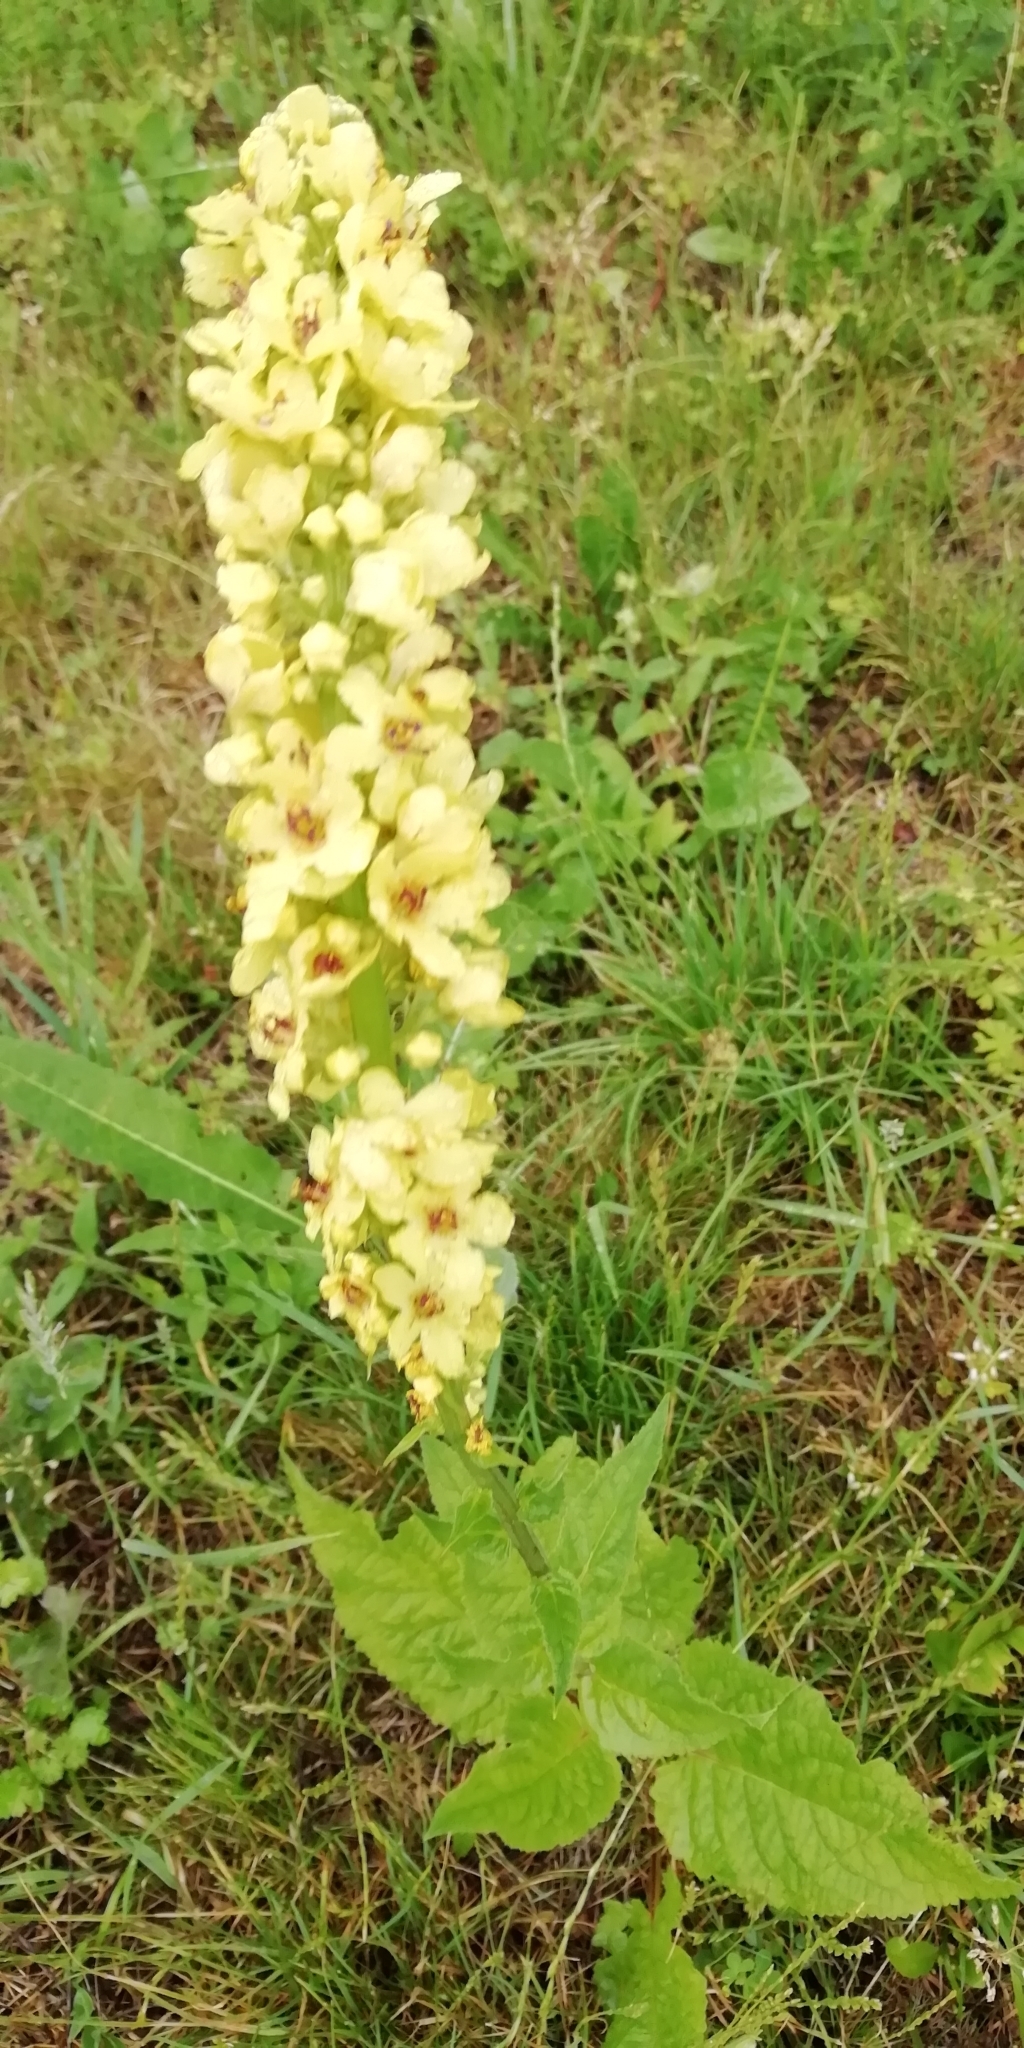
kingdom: Plantae
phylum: Tracheophyta
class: Magnoliopsida
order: Lamiales
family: Scrophulariaceae
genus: Verbascum
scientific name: Verbascum nigrum
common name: Dark mullein
